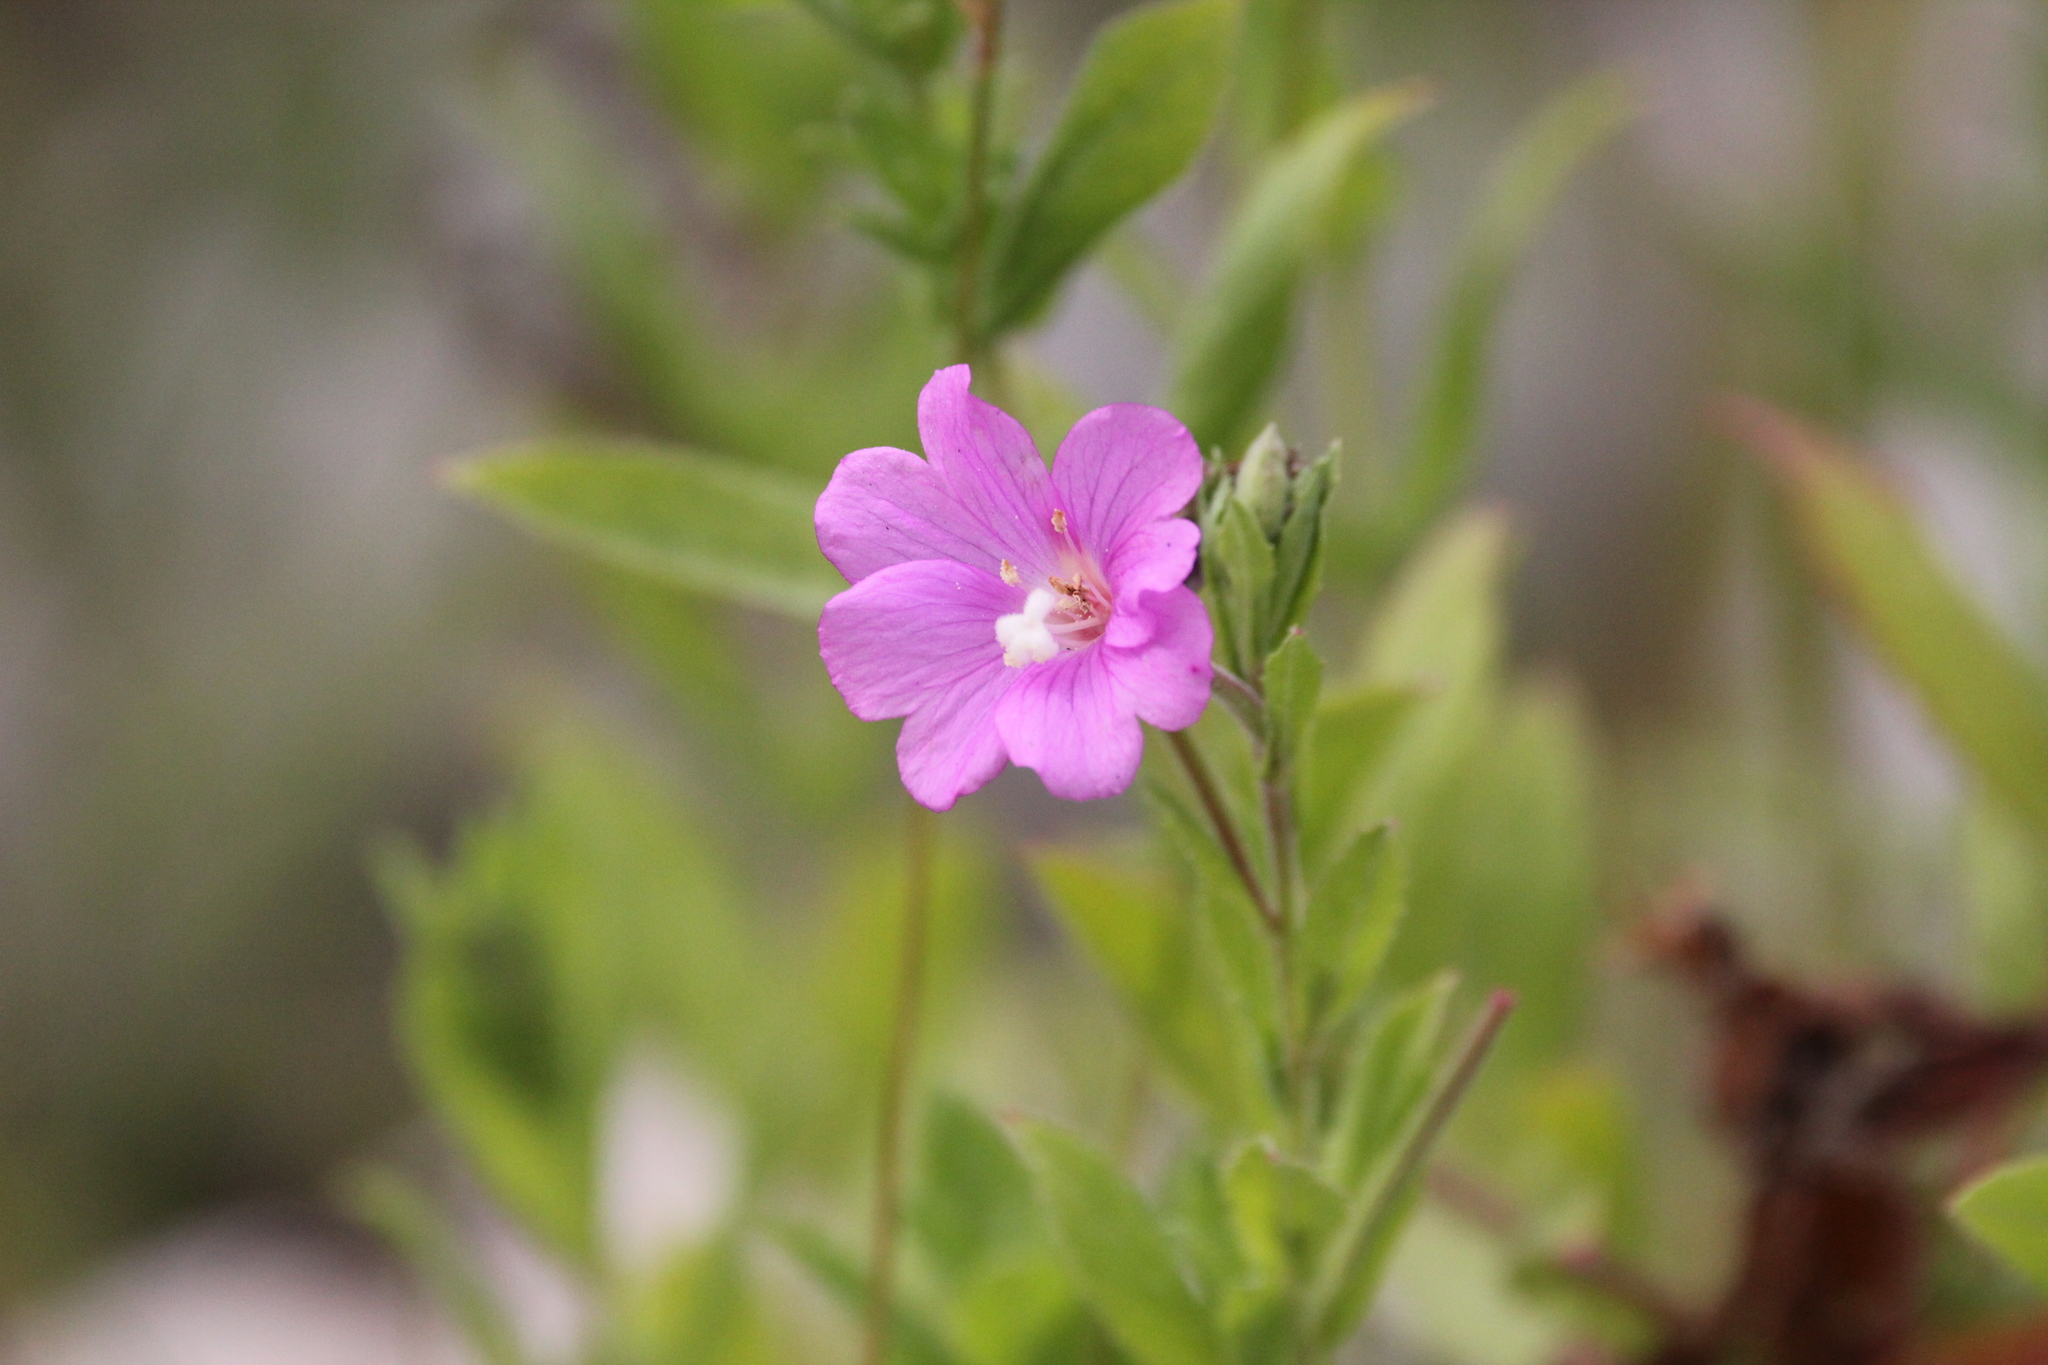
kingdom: Plantae
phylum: Tracheophyta
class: Magnoliopsida
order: Myrtales
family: Onagraceae
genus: Epilobium
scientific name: Epilobium hirsutum
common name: Great willowherb
